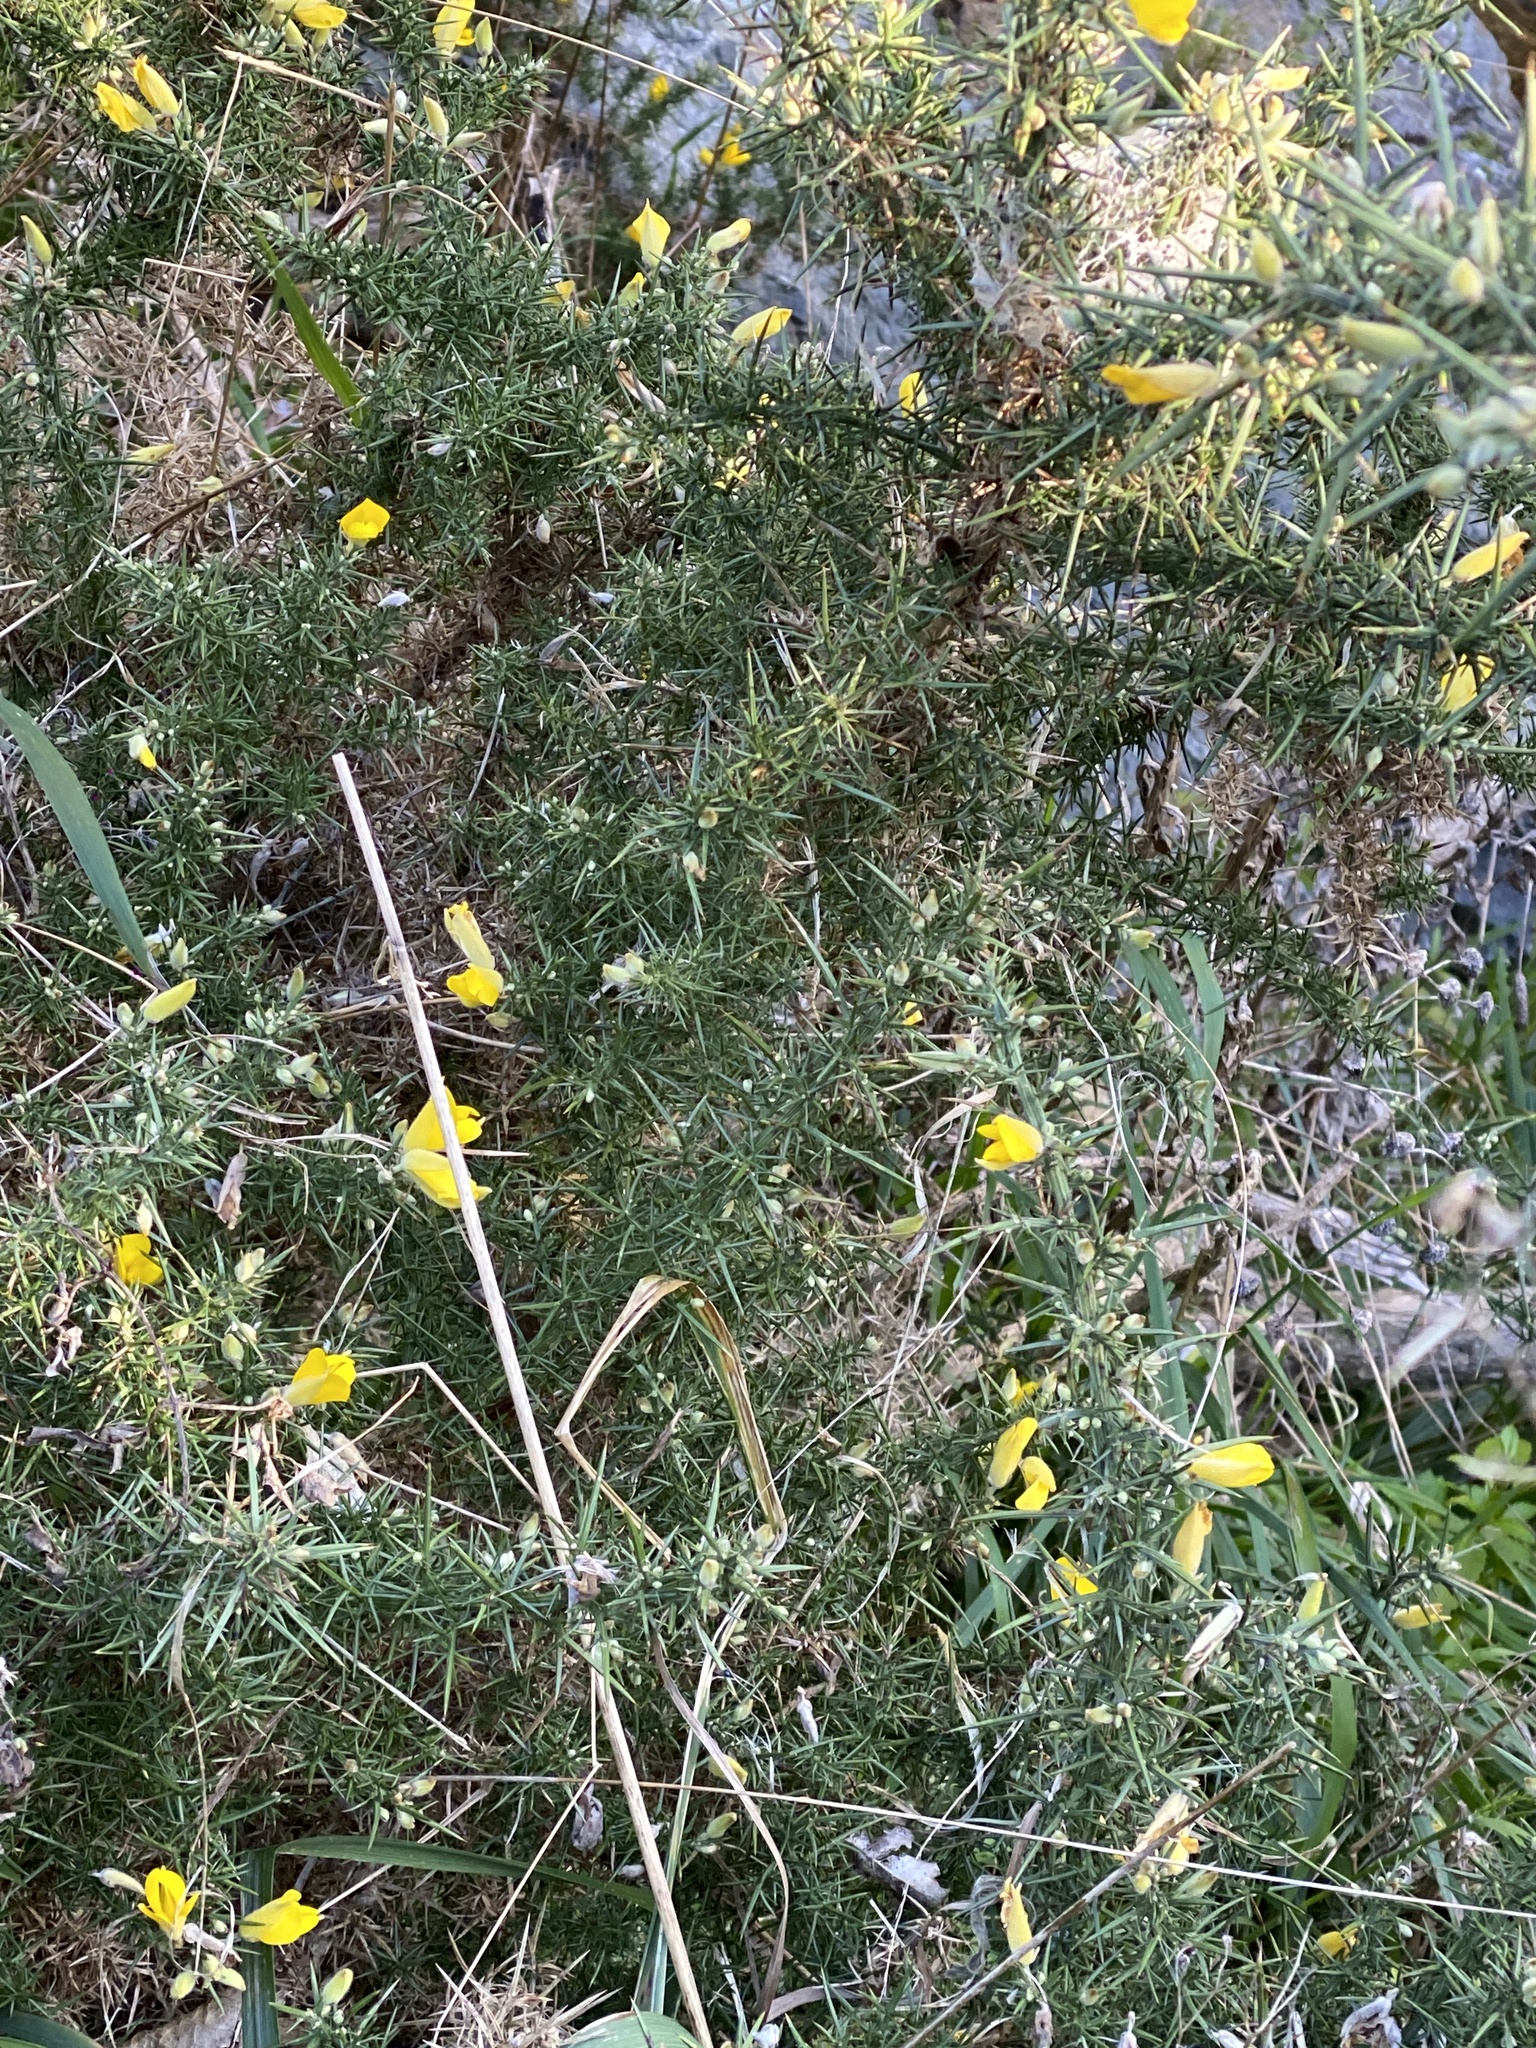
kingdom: Plantae
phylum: Tracheophyta
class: Magnoliopsida
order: Fabales
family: Fabaceae
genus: Ulex
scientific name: Ulex europaeus
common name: Common gorse
